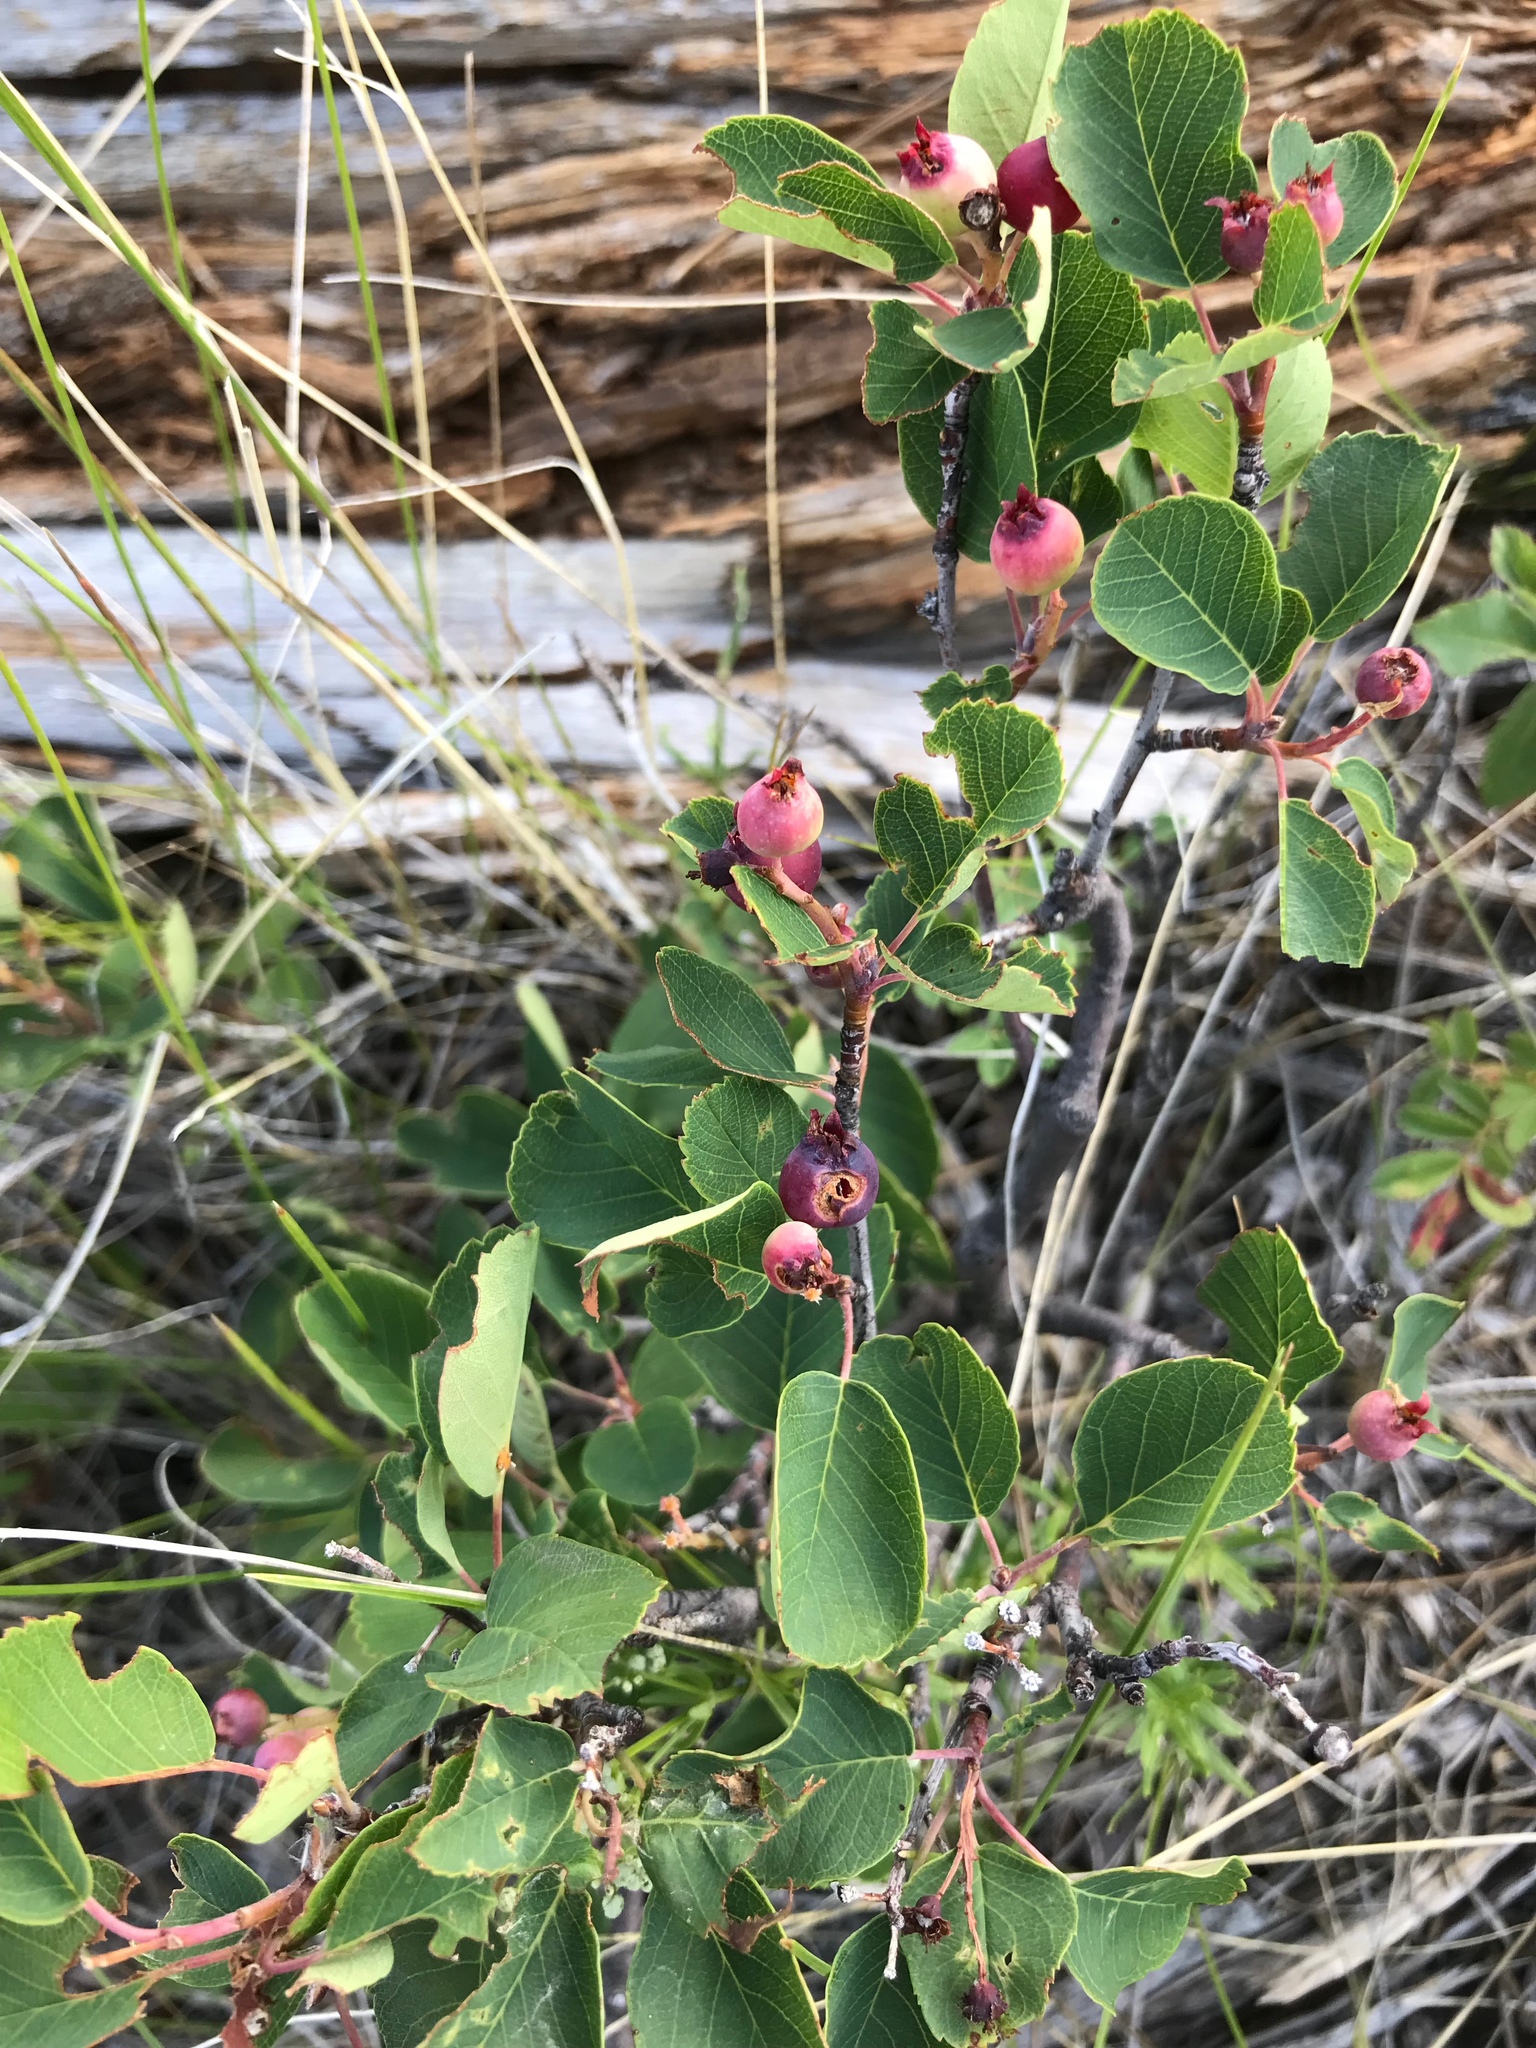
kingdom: Plantae
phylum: Tracheophyta
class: Magnoliopsida
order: Rosales
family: Rosaceae
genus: Amelanchier
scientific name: Amelanchier alnifolia
